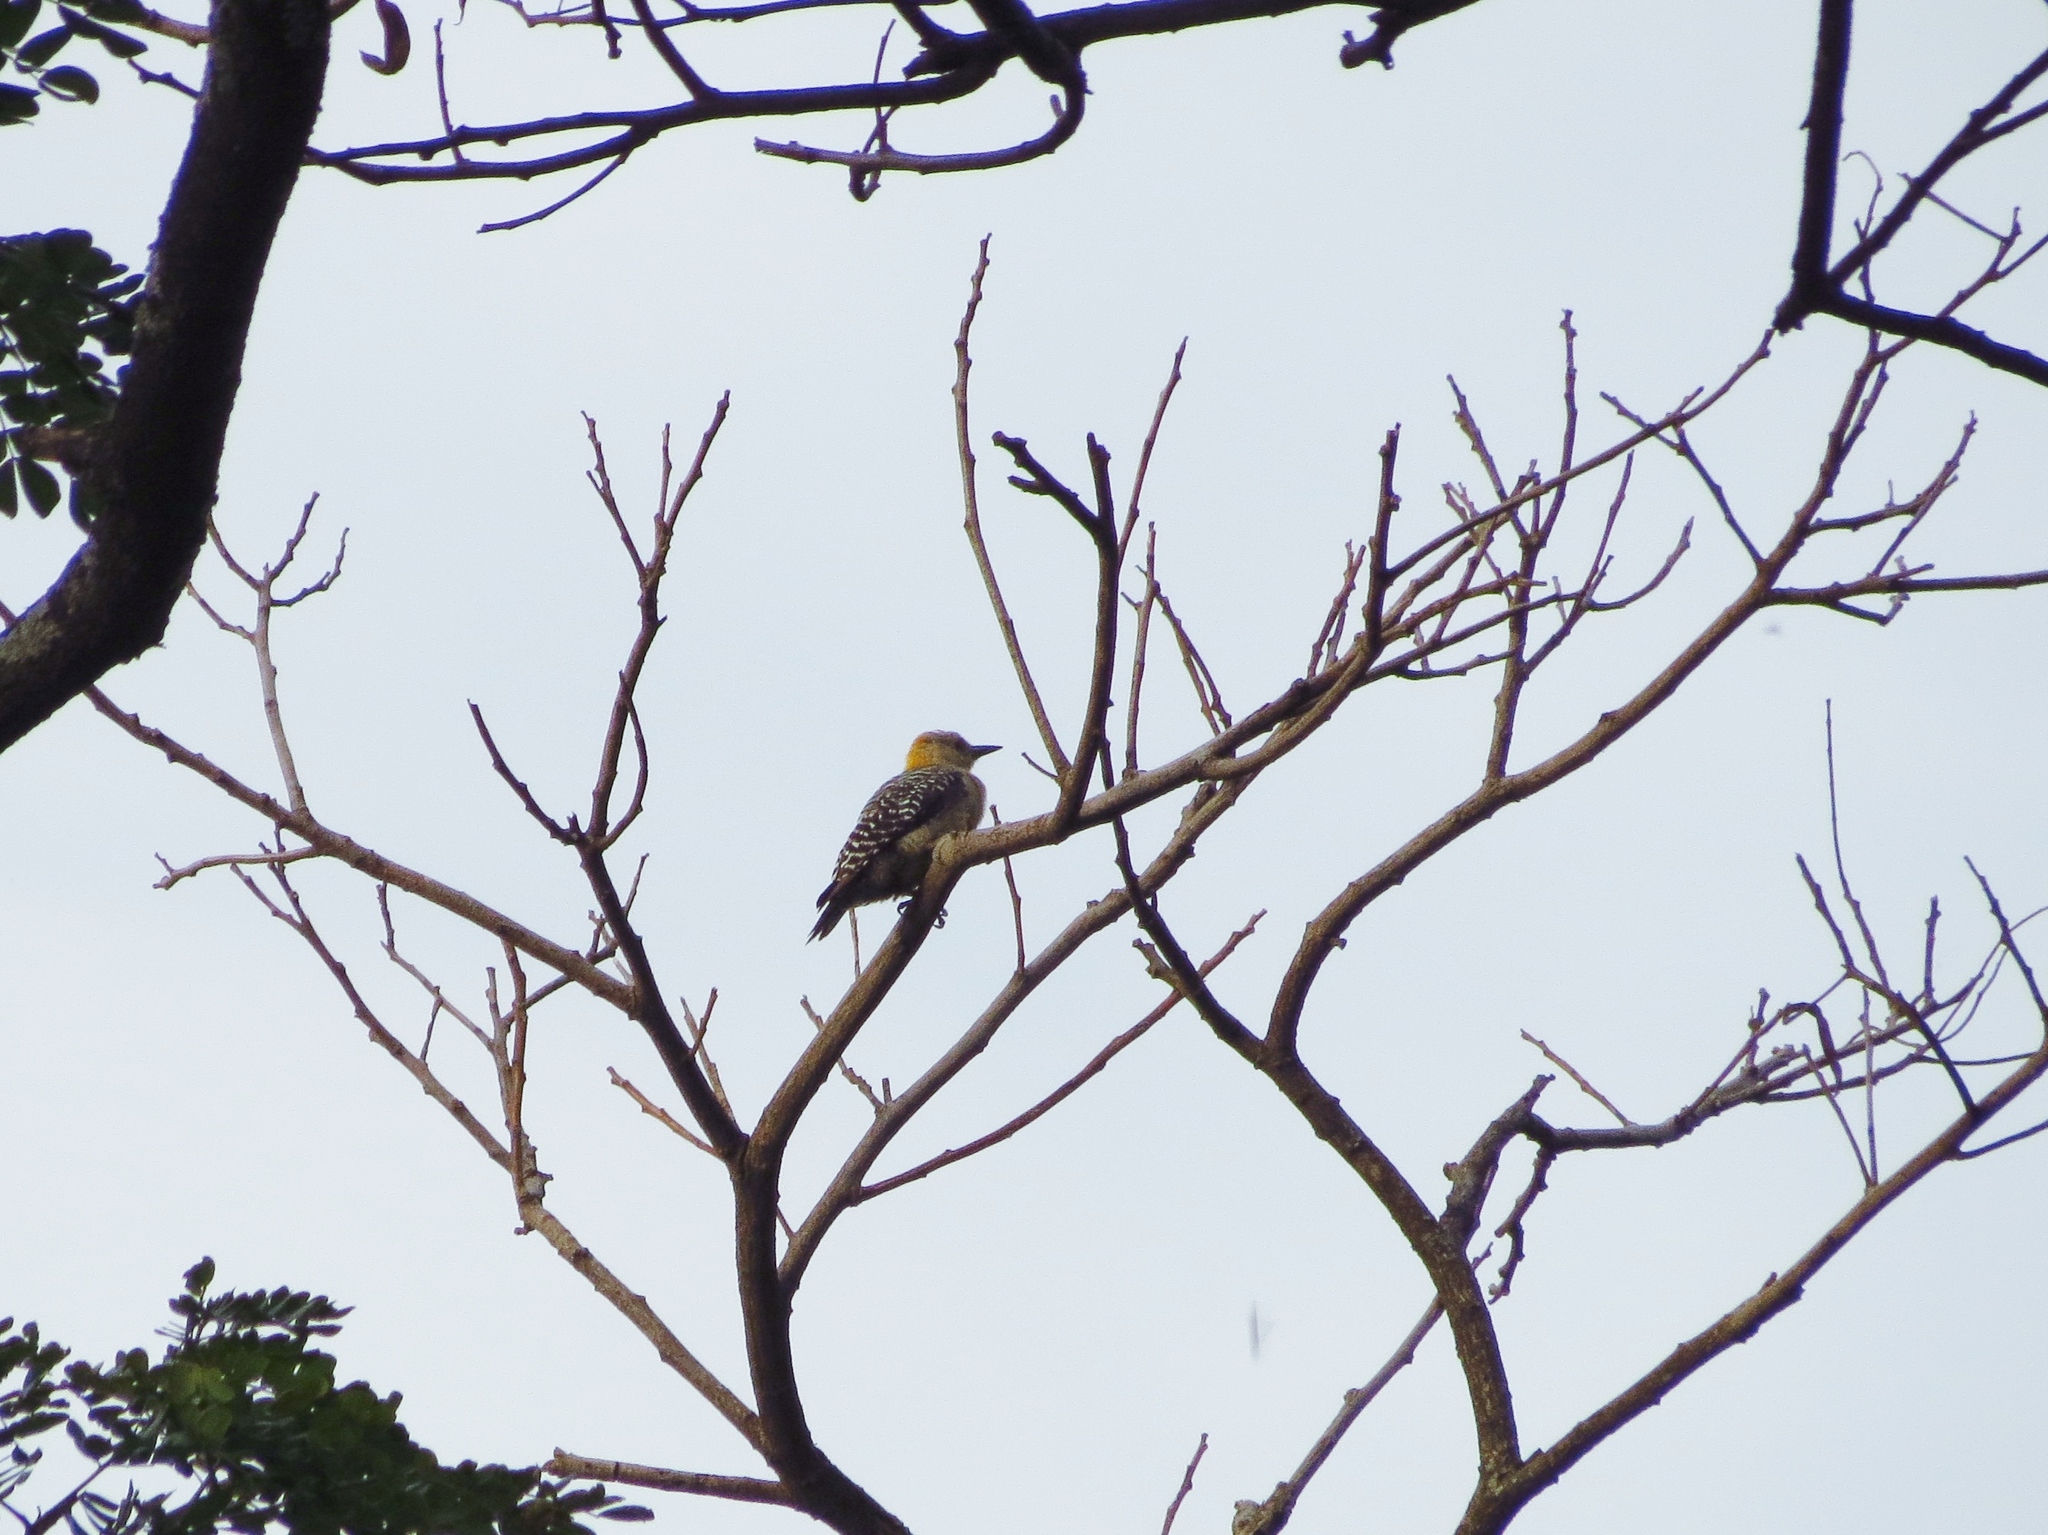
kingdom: Animalia
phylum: Chordata
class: Aves
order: Piciformes
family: Picidae
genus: Melanerpes
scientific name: Melanerpes hoffmannii
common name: Hoffmann's woodpecker
